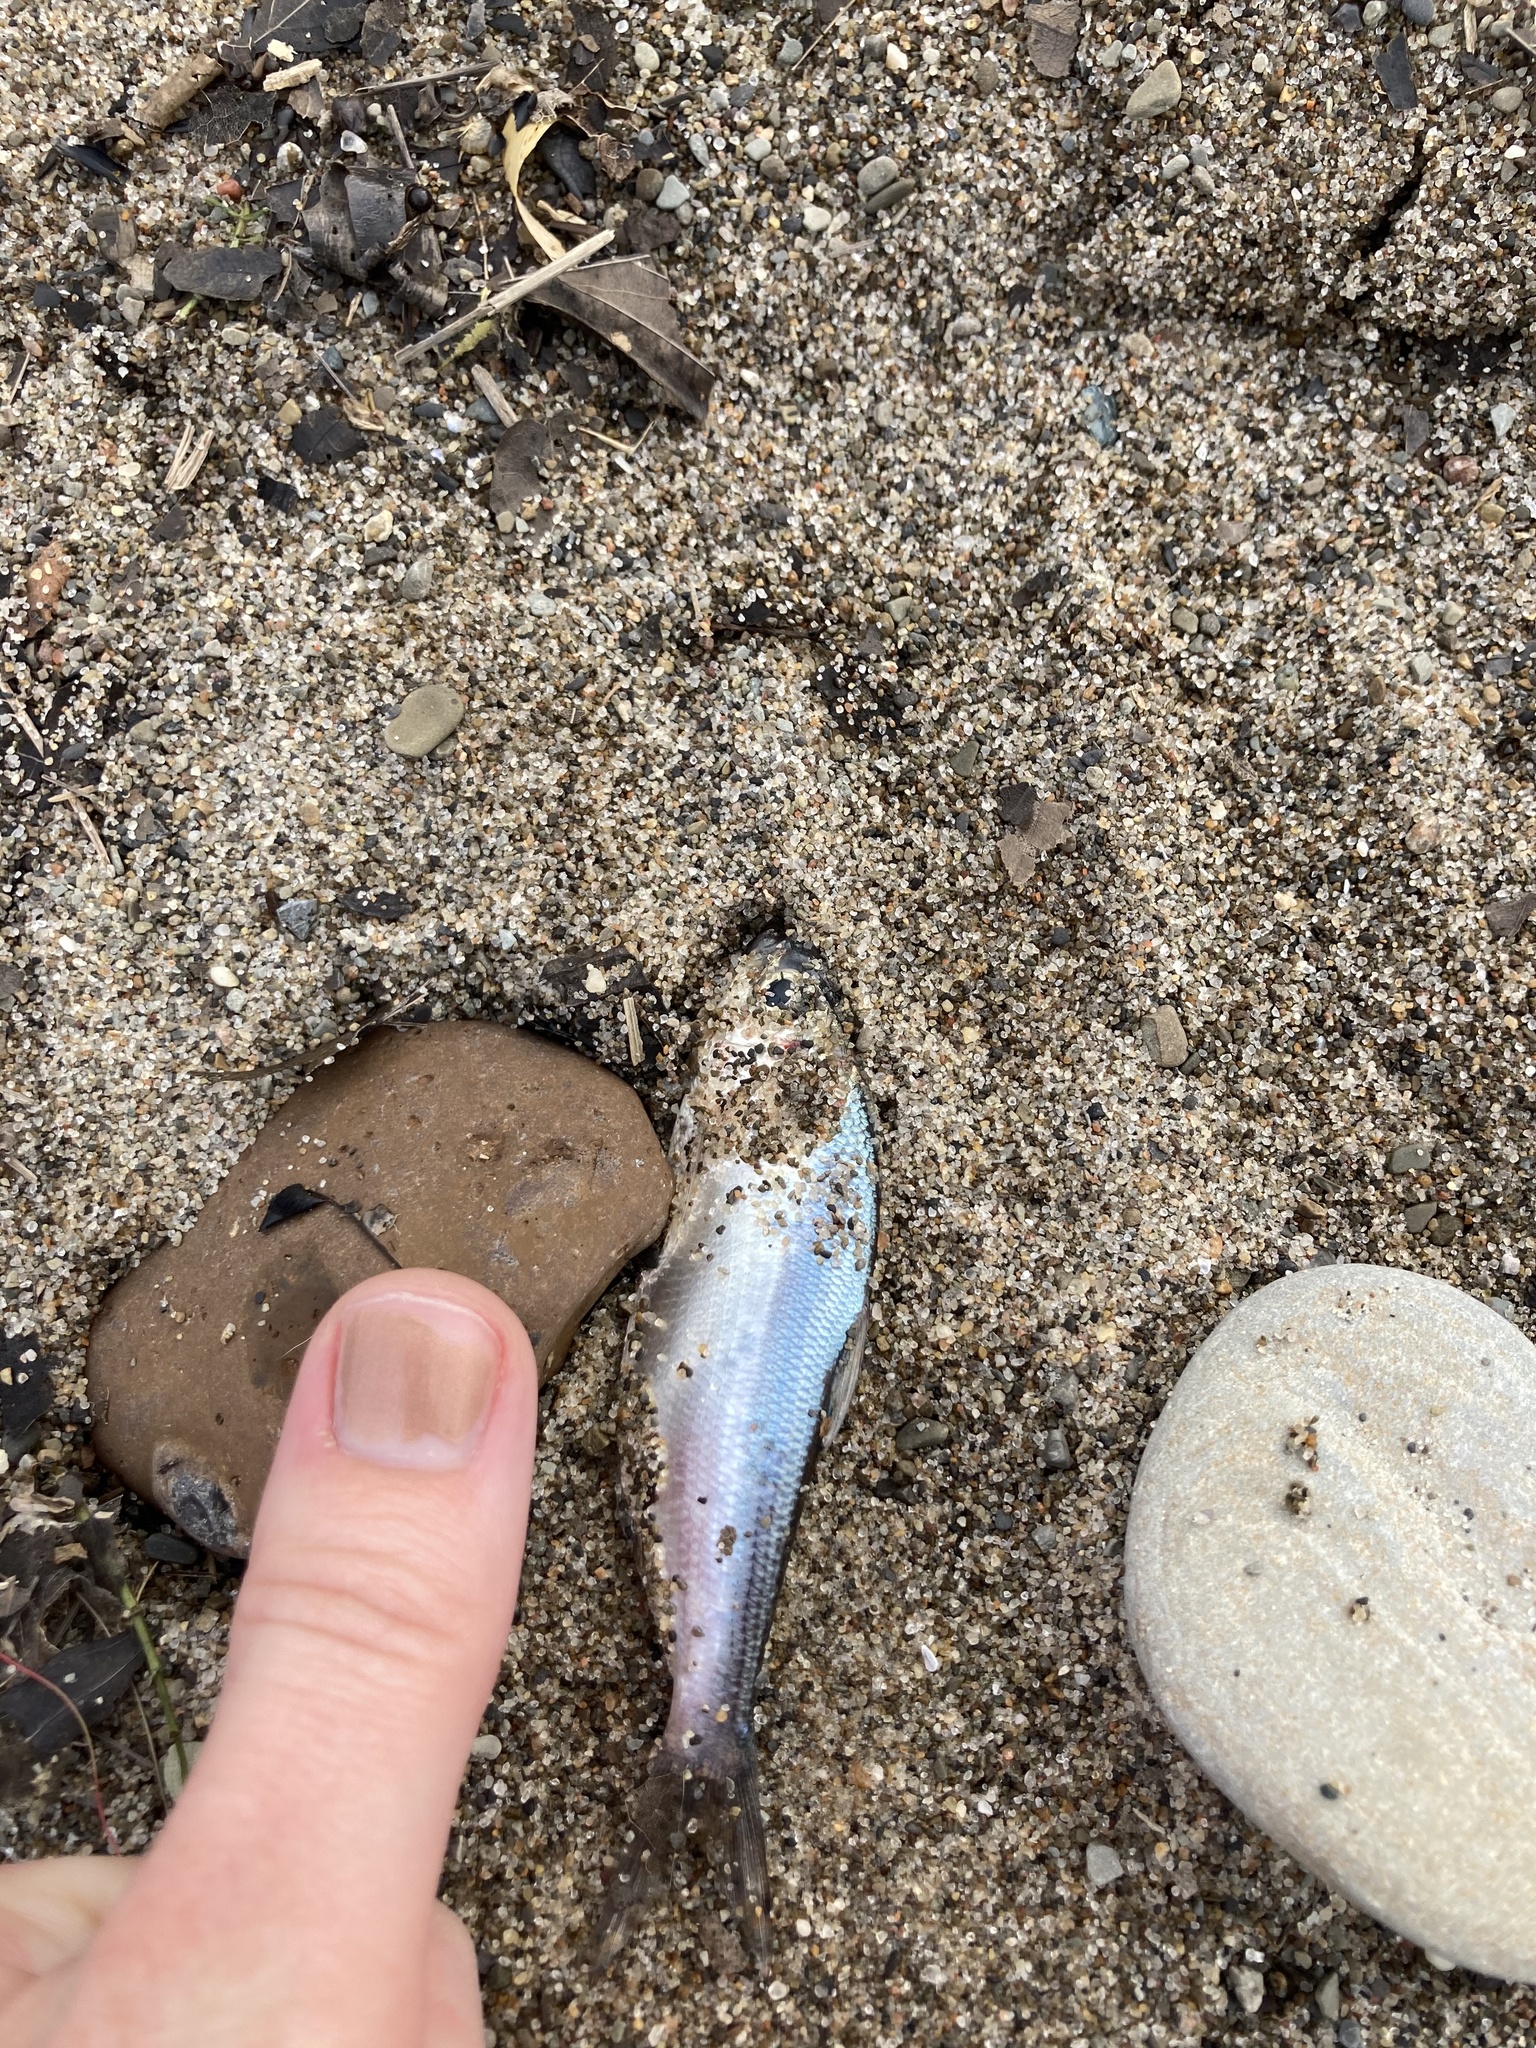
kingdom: Animalia
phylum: Chordata
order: Clupeiformes
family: Clupeidae
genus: Dorosoma
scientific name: Dorosoma cepedianum
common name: Gizzard shad
